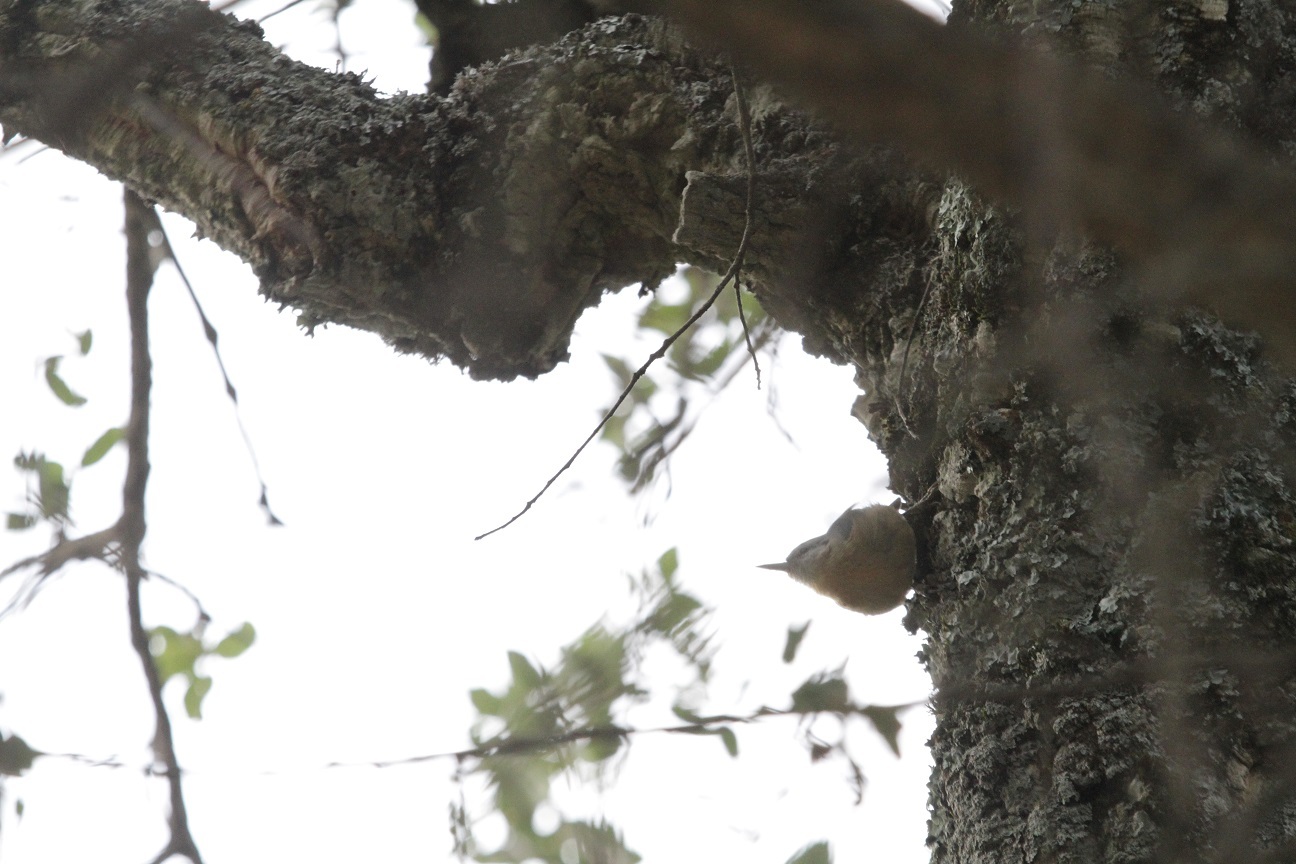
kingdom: Animalia
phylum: Chordata
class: Aves
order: Passeriformes
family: Sittidae
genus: Sitta
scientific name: Sitta ledanti
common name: Algerian nuthatch
